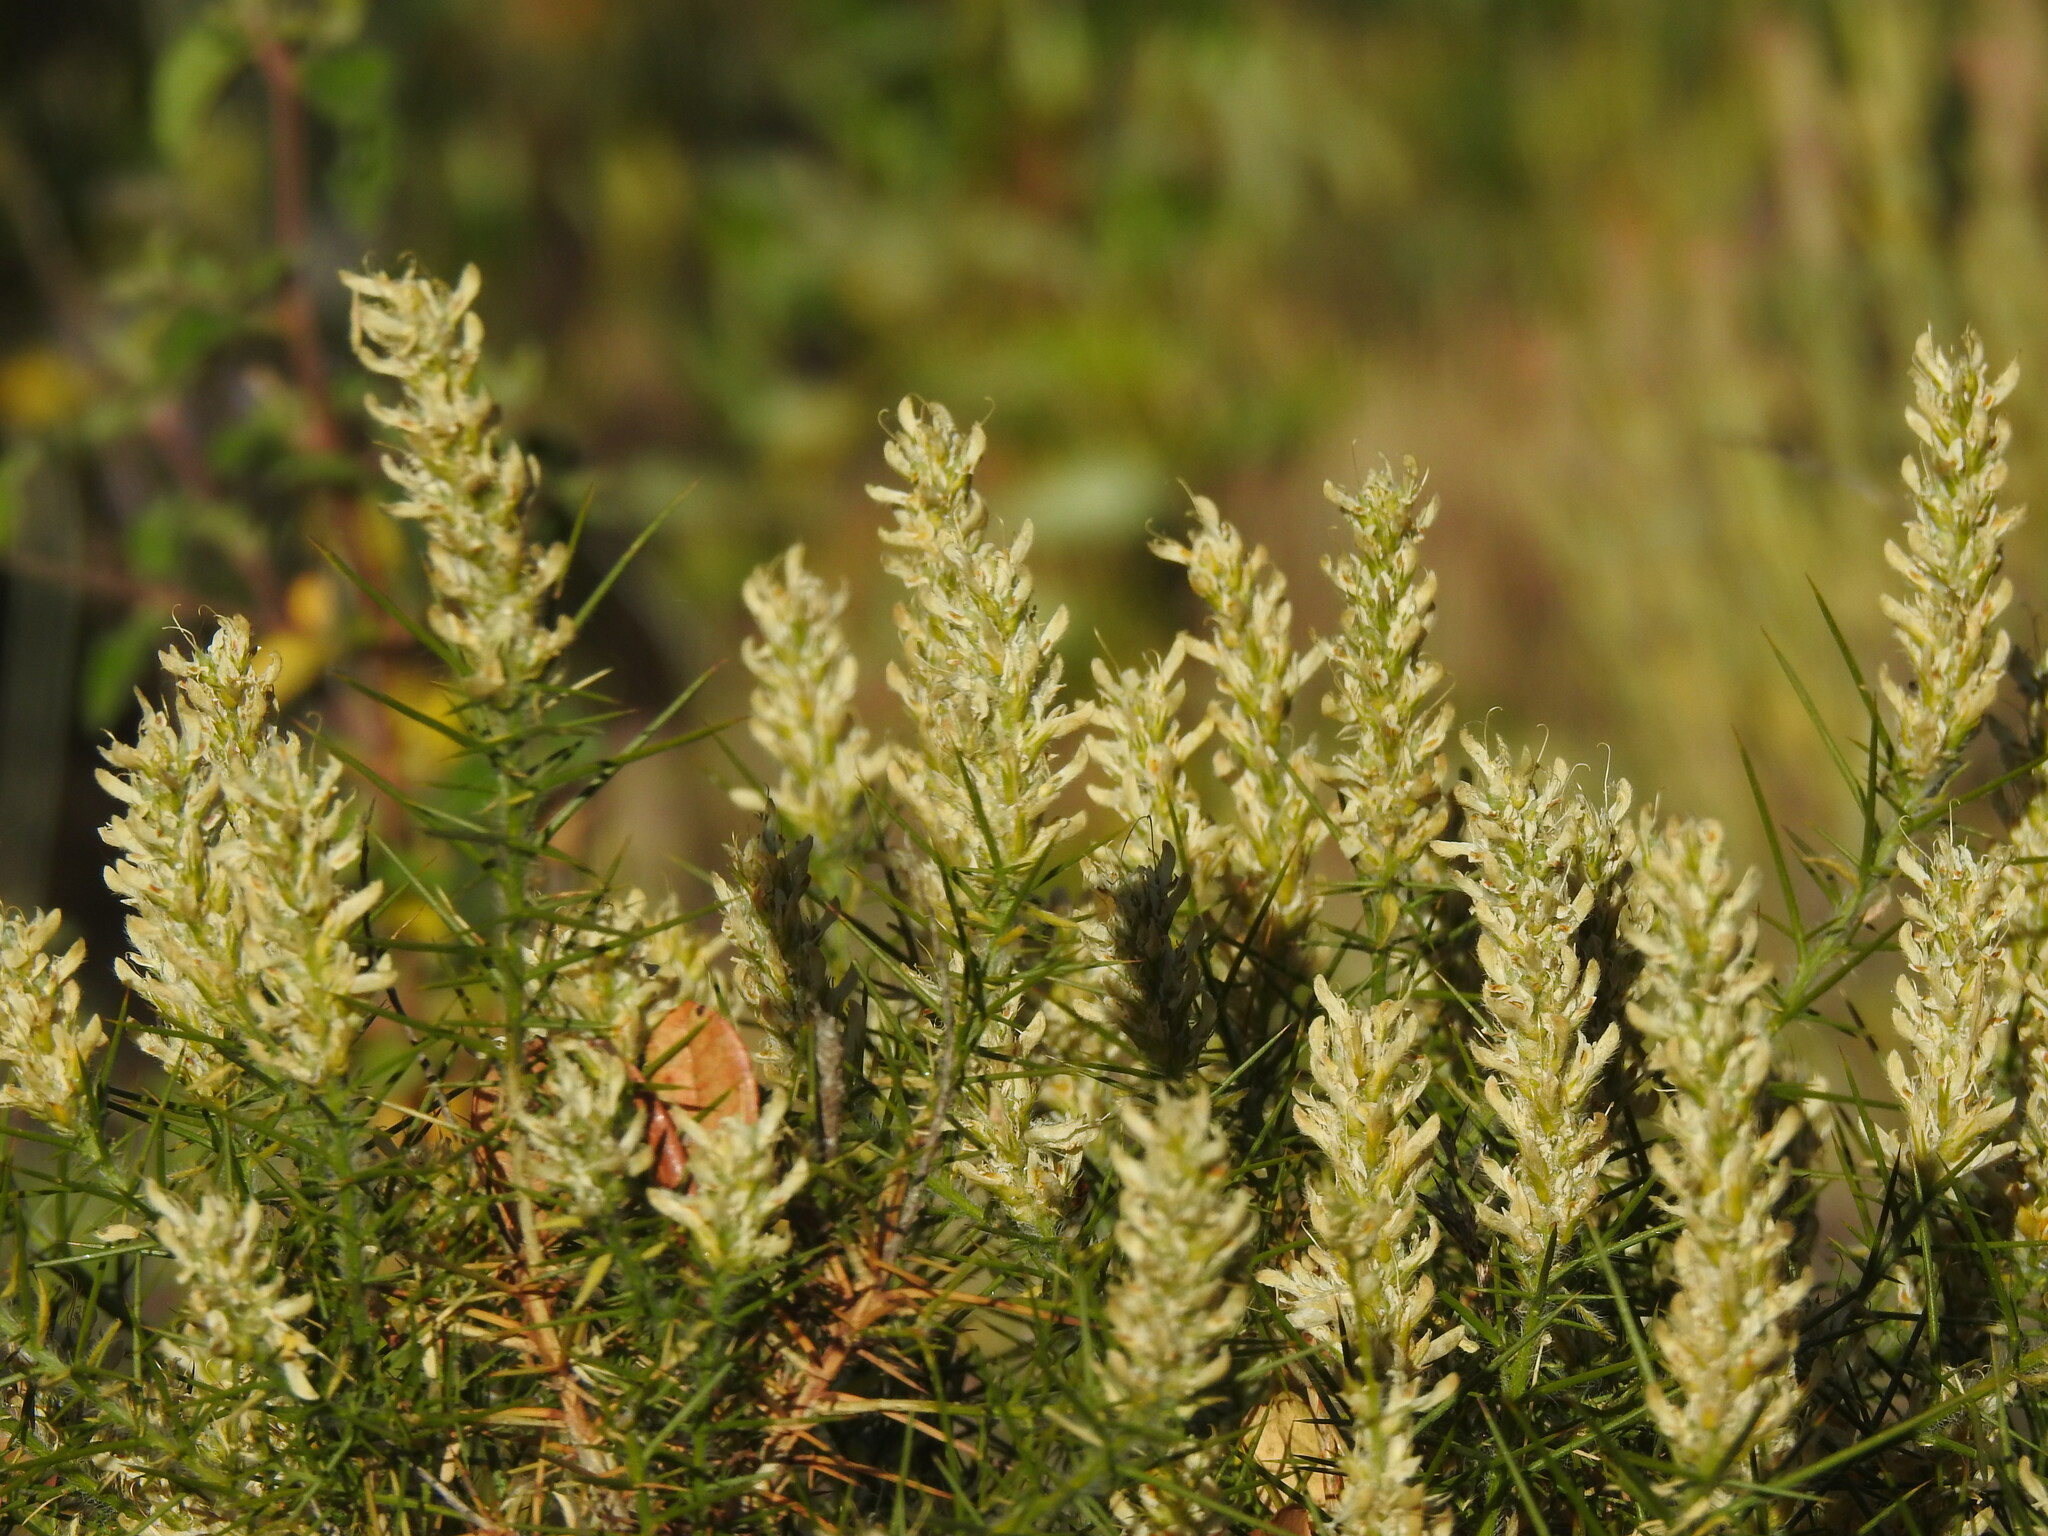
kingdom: Plantae
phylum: Tracheophyta
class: Magnoliopsida
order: Fabales
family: Fabaceae
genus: Genista
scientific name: Genista hirsuta
